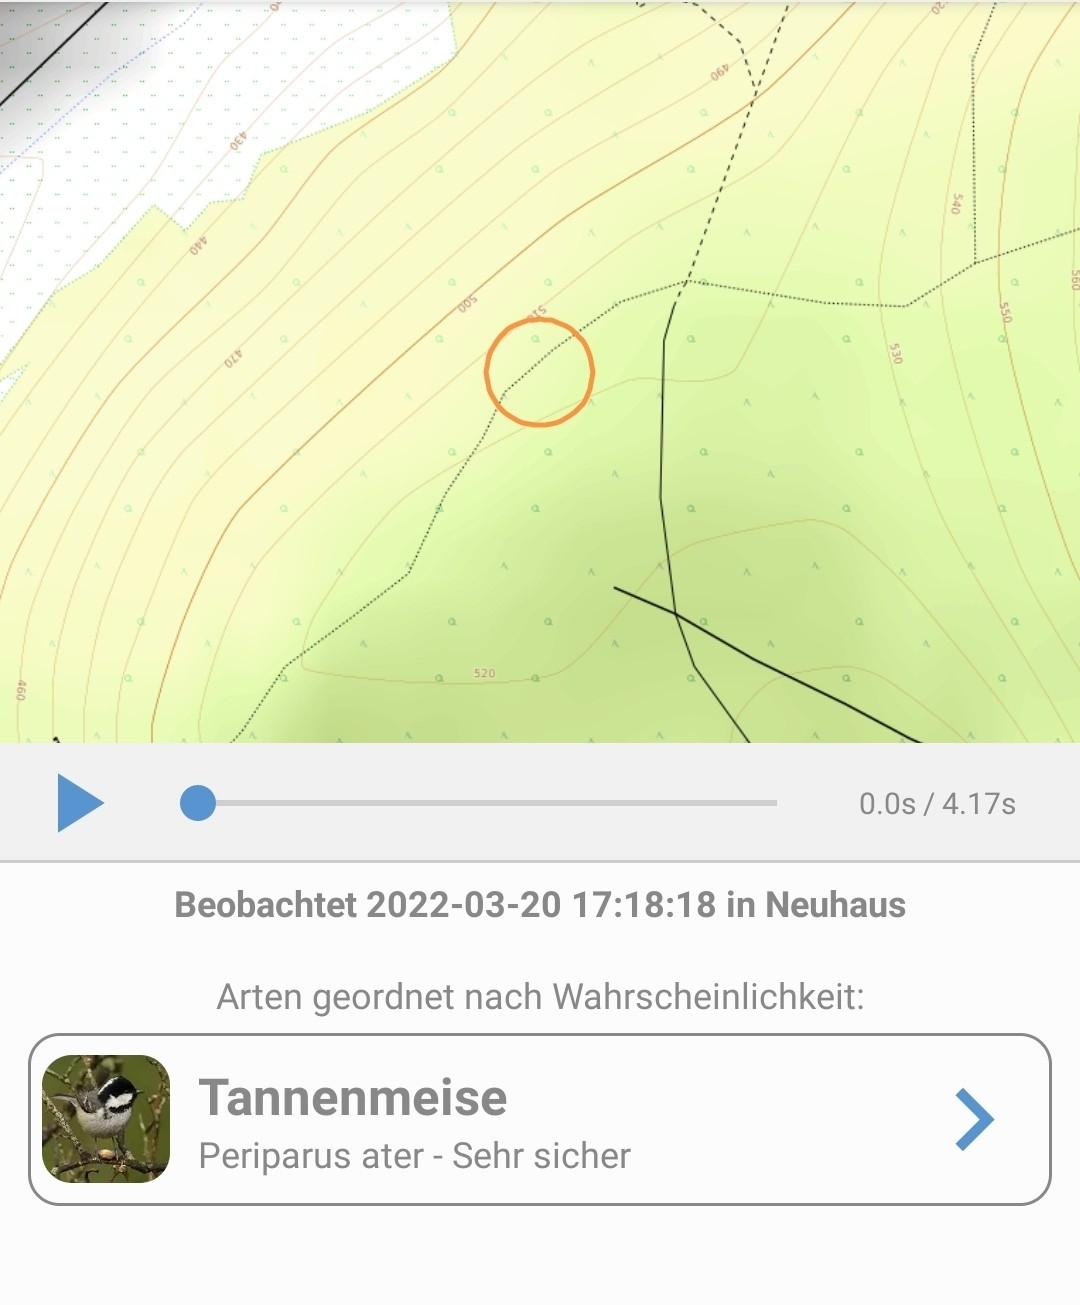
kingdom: Animalia
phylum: Chordata
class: Aves
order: Passeriformes
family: Paridae
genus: Periparus
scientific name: Periparus ater
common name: Coal tit
